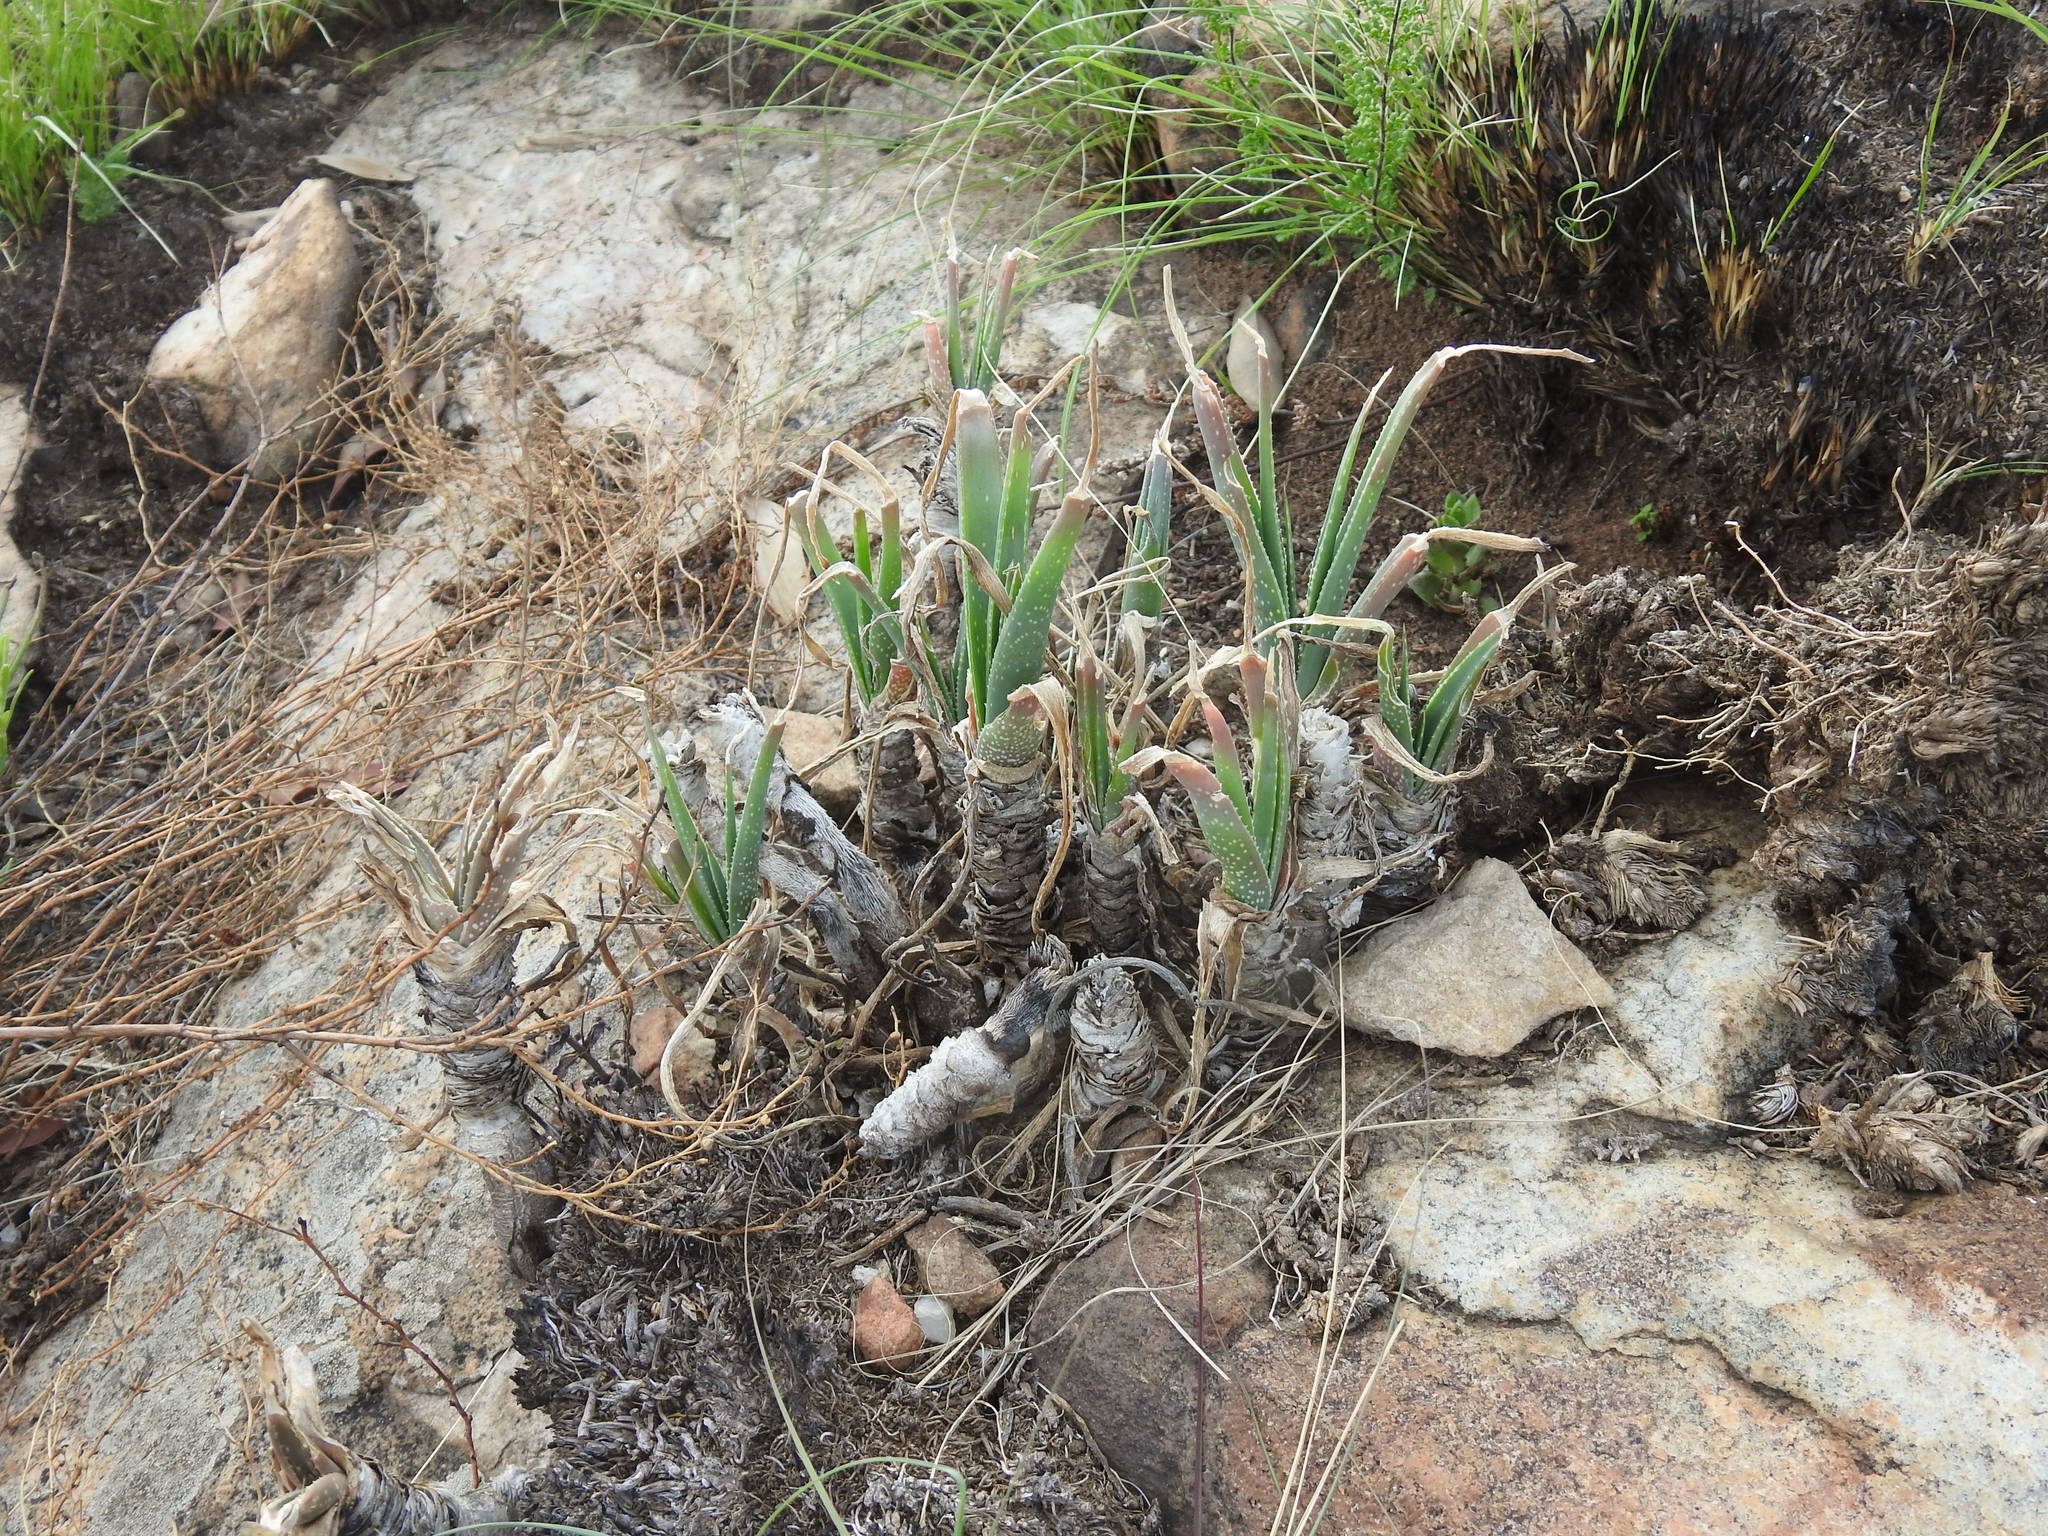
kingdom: Plantae
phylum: Tracheophyta
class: Liliopsida
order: Asparagales
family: Asphodelaceae
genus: Aloe
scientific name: Aloe verecunda
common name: Grass aloe
